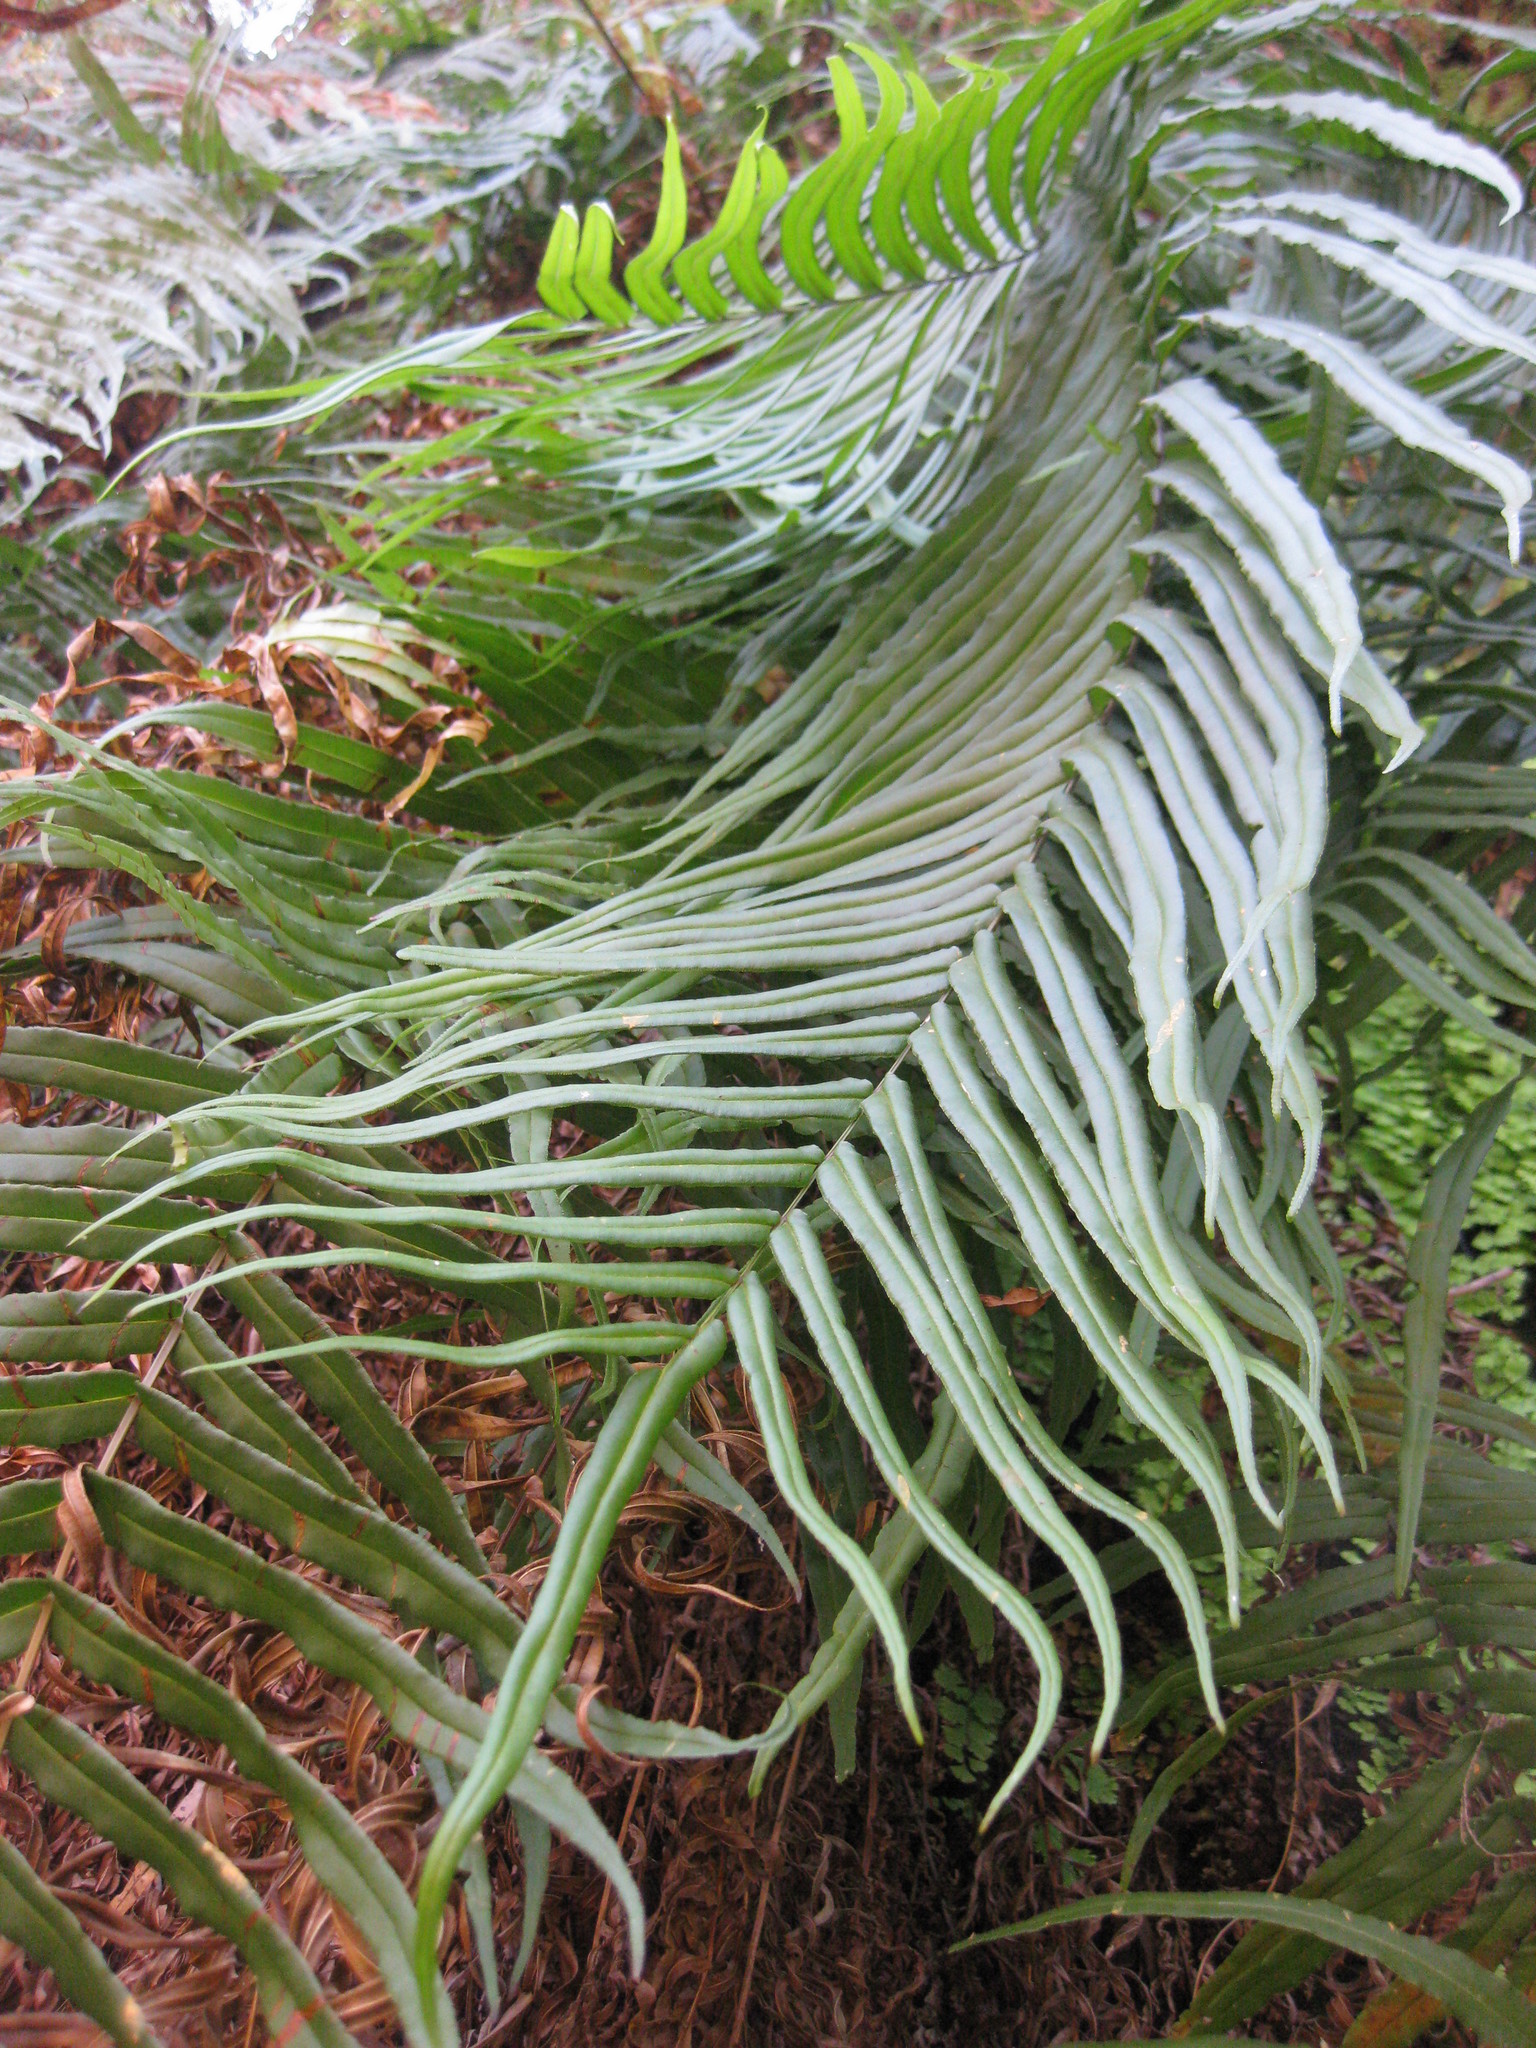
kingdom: Plantae
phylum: Tracheophyta
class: Polypodiopsida
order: Polypodiales
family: Pteridaceae
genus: Pteris
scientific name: Pteris vittata
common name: Ladder brake
